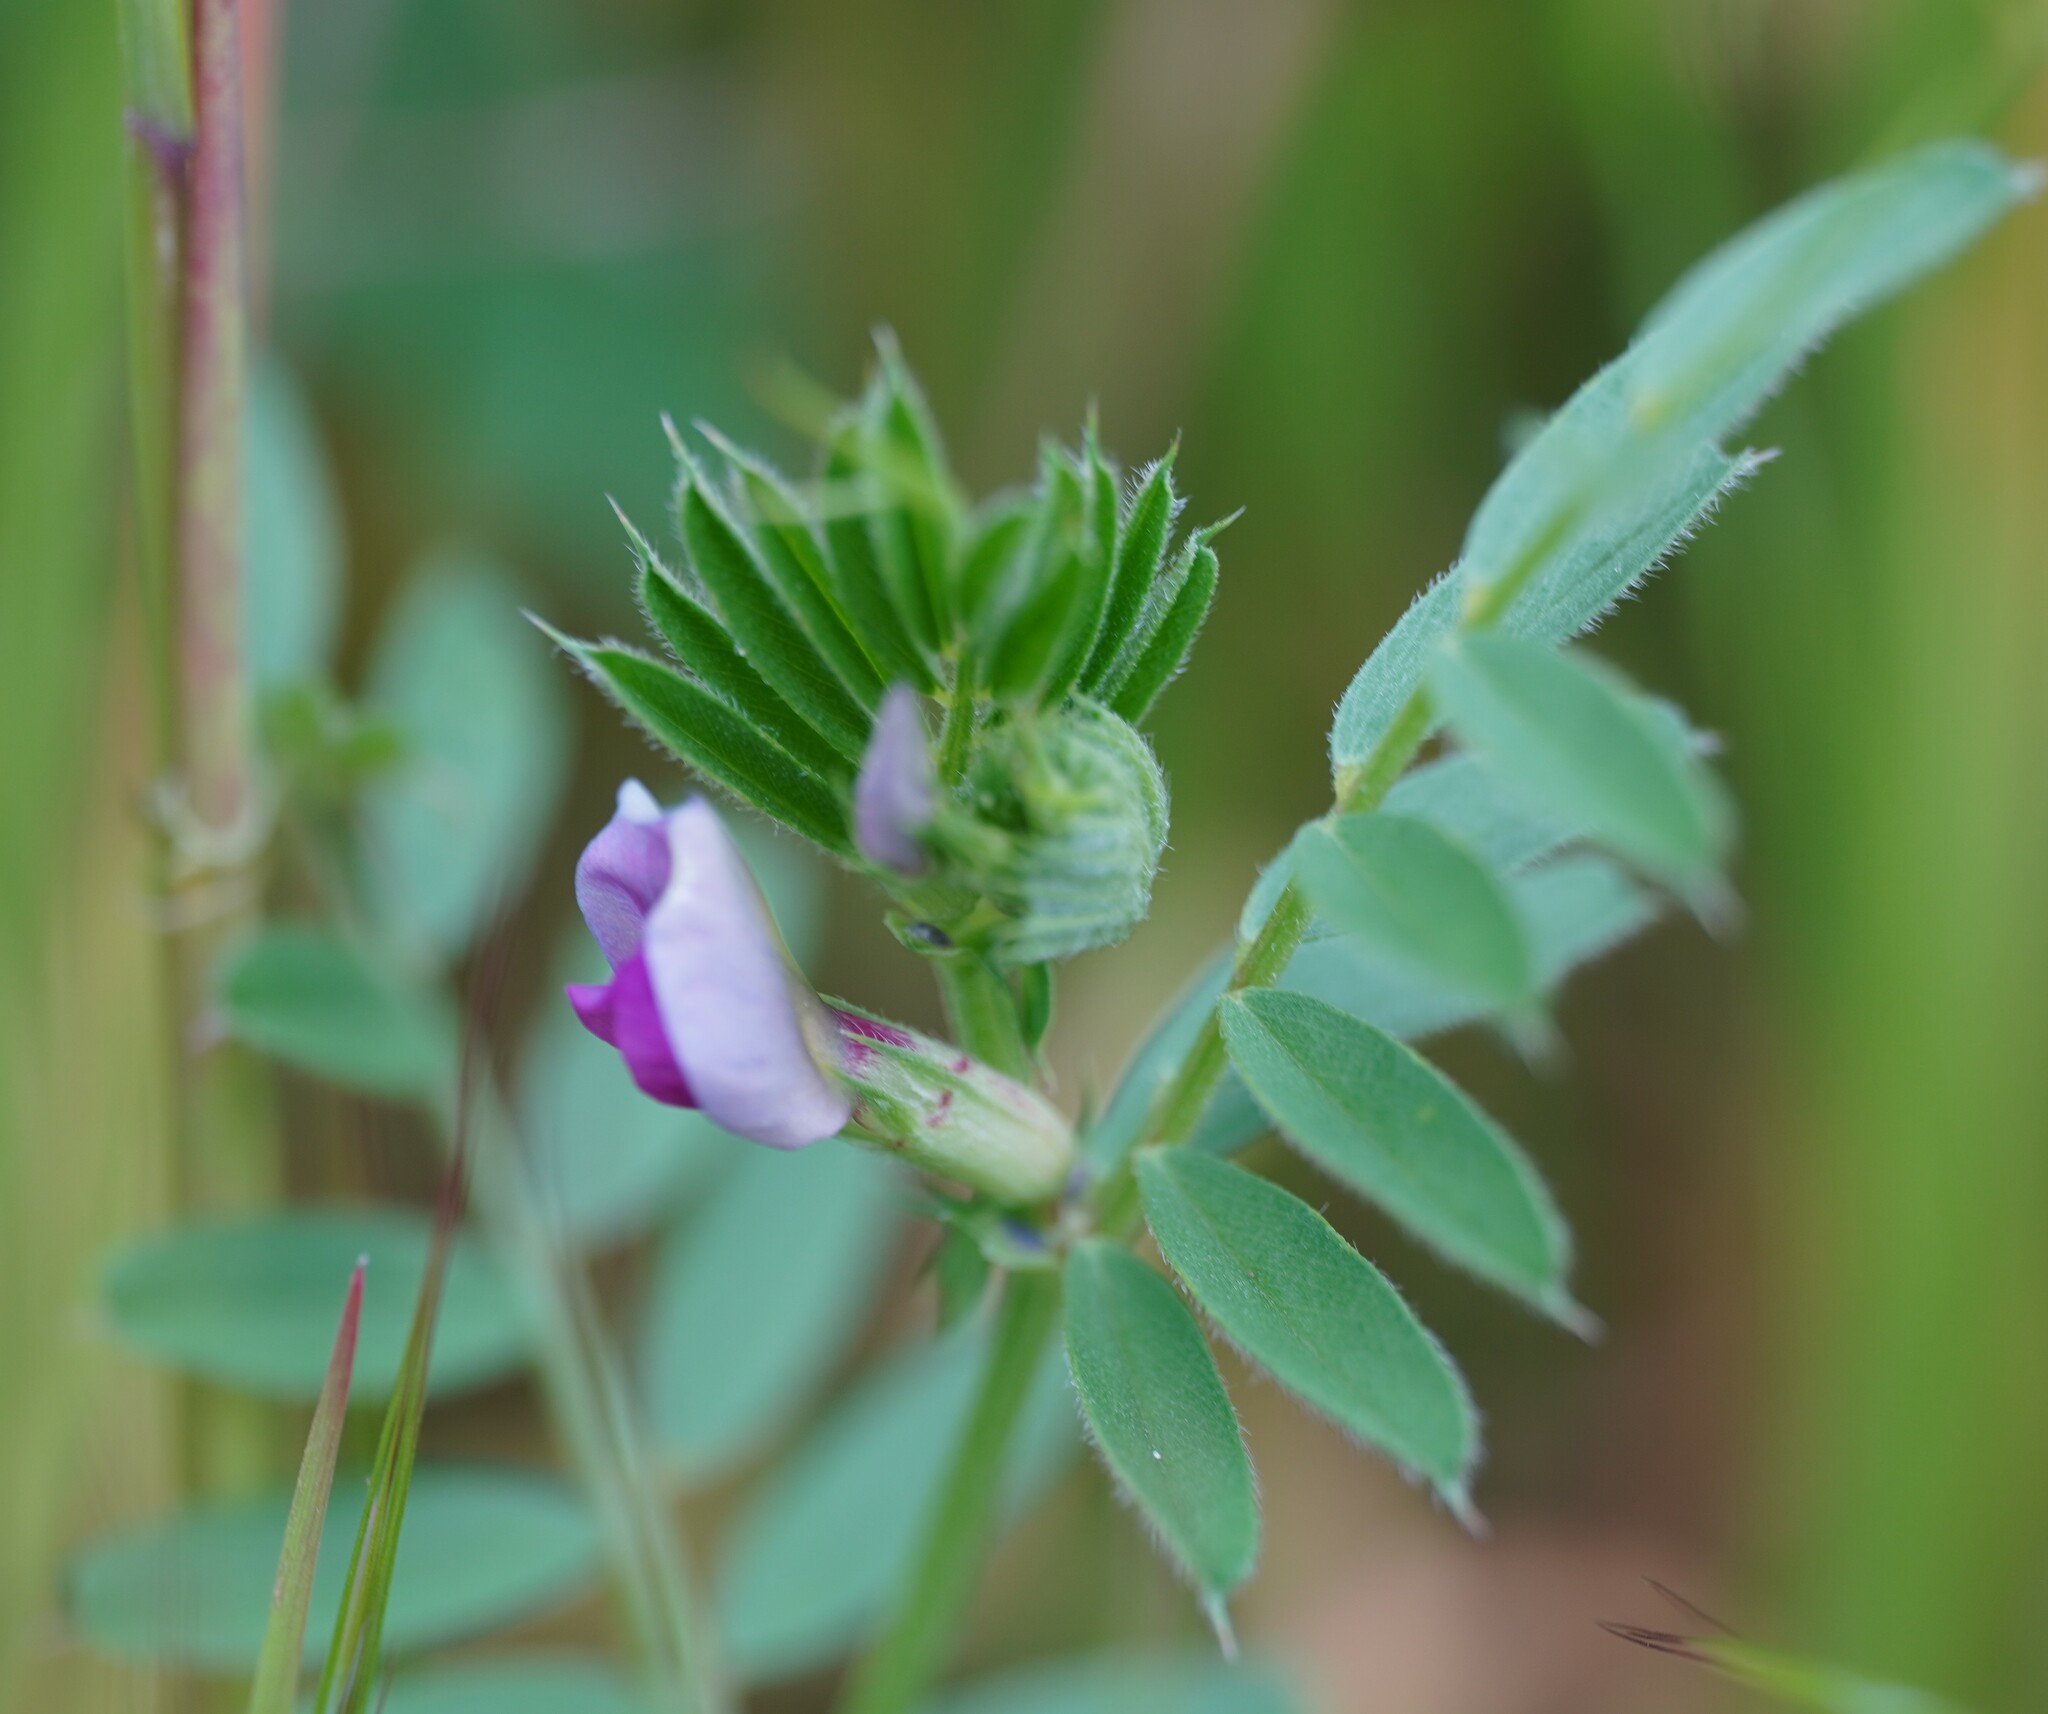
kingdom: Plantae
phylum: Tracheophyta
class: Magnoliopsida
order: Fabales
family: Fabaceae
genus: Vicia
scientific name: Vicia sativa
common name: Garden vetch
